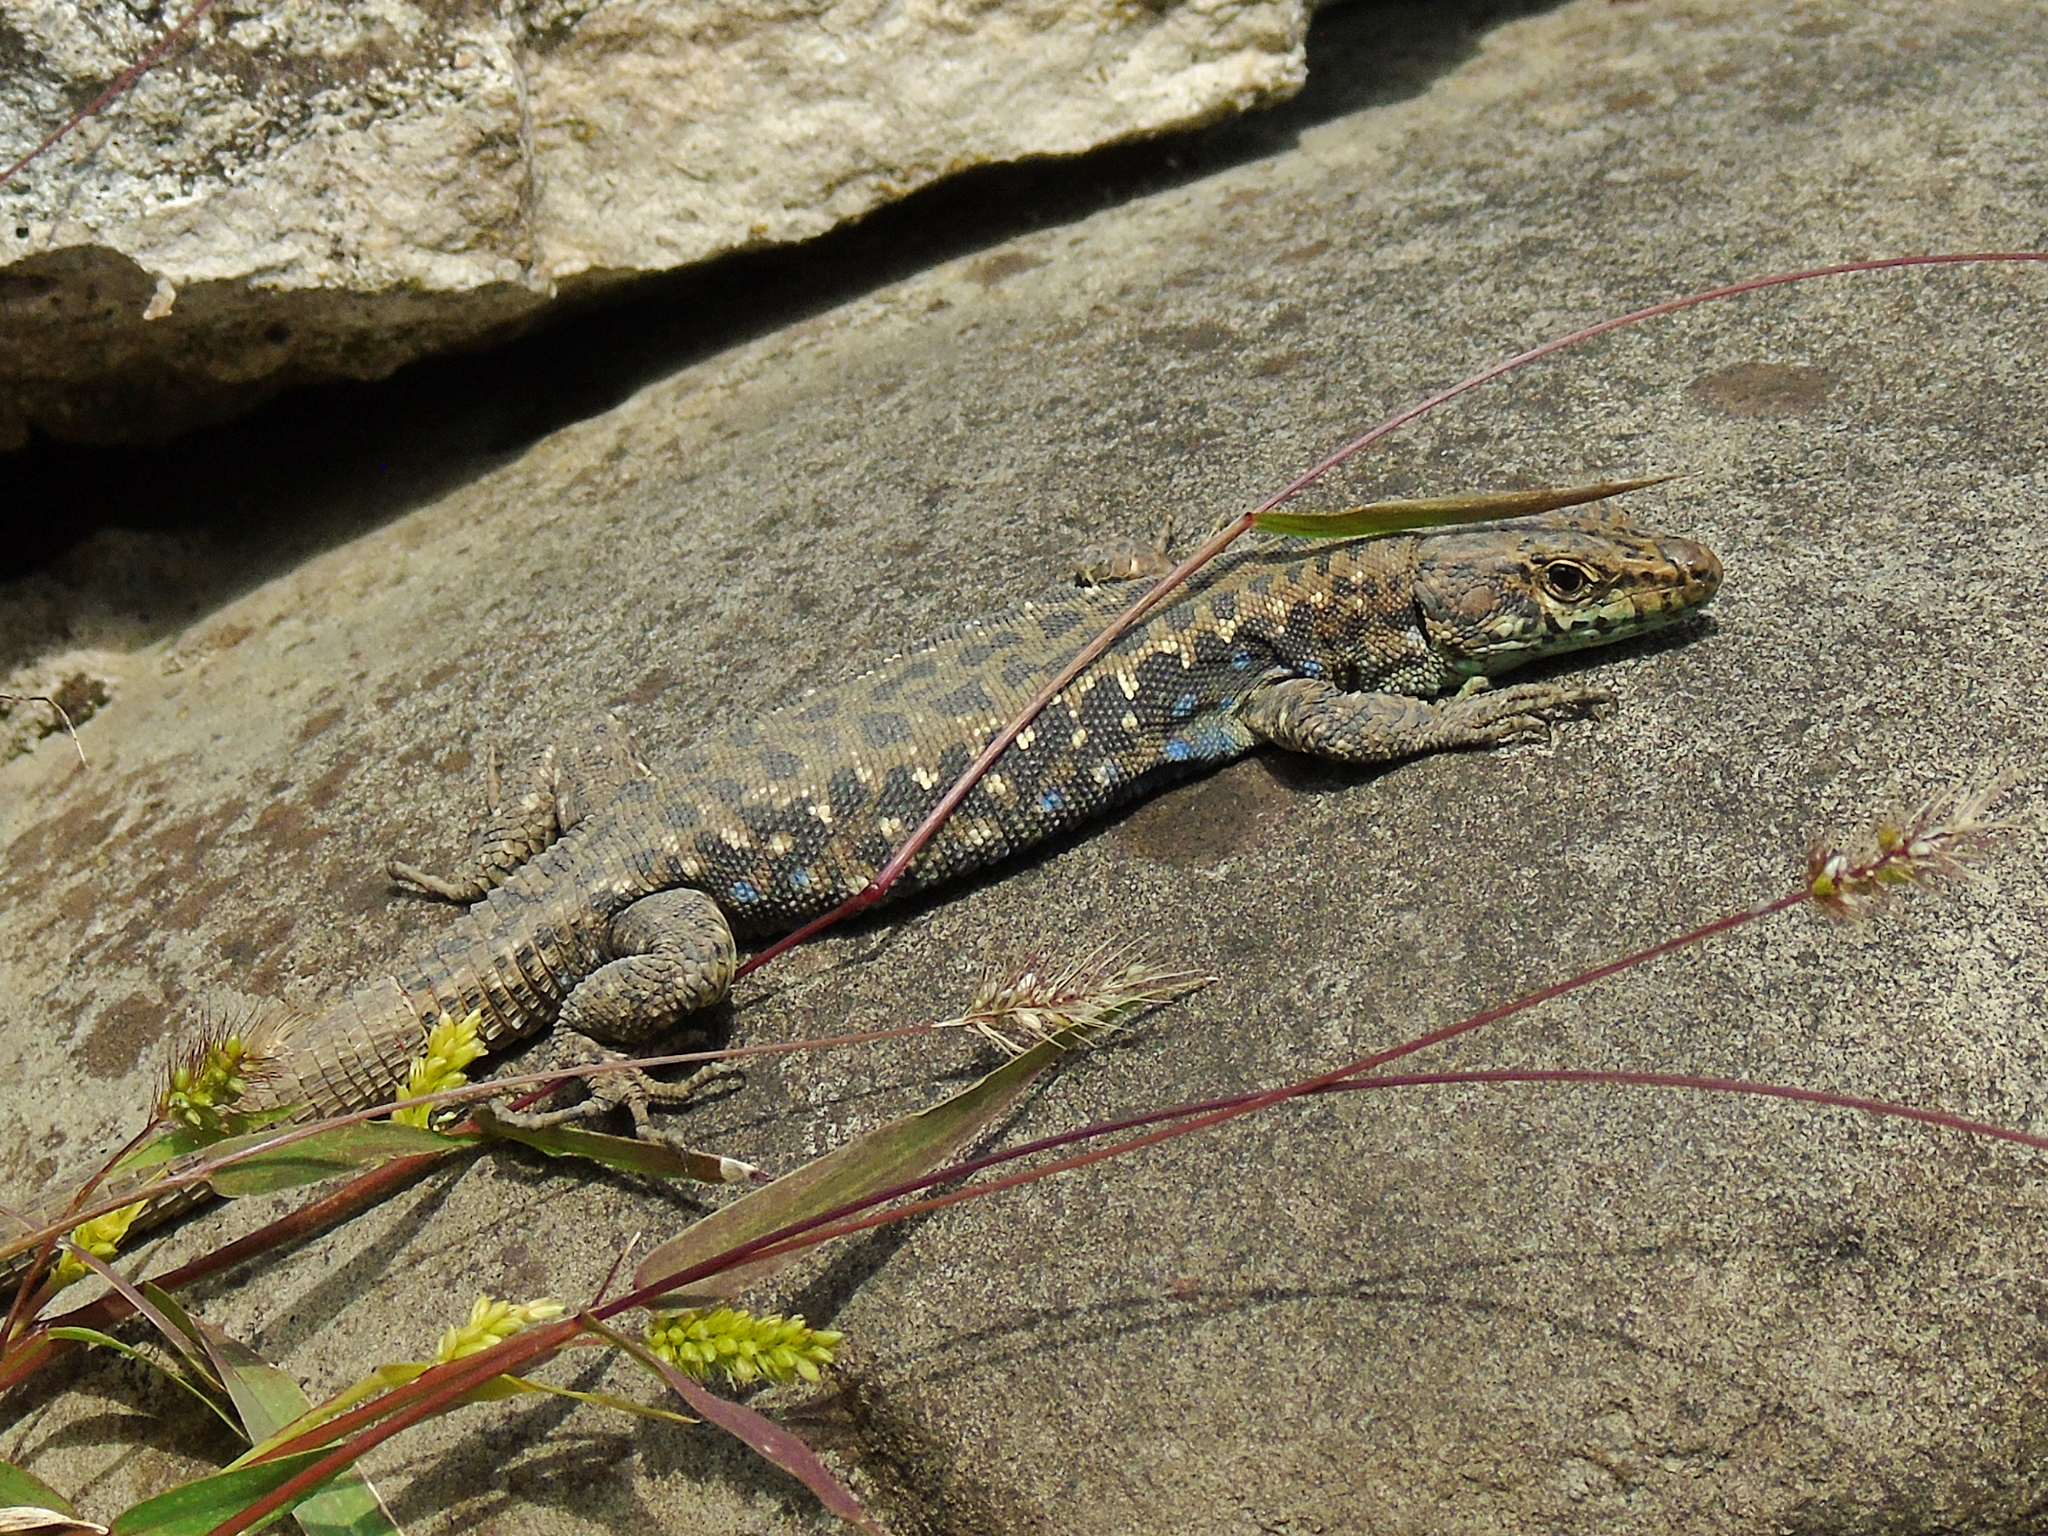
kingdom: Animalia
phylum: Chordata
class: Squamata
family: Lacertidae
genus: Darevskia
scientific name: Darevskia rudis
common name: Spiny-tailed lizard
